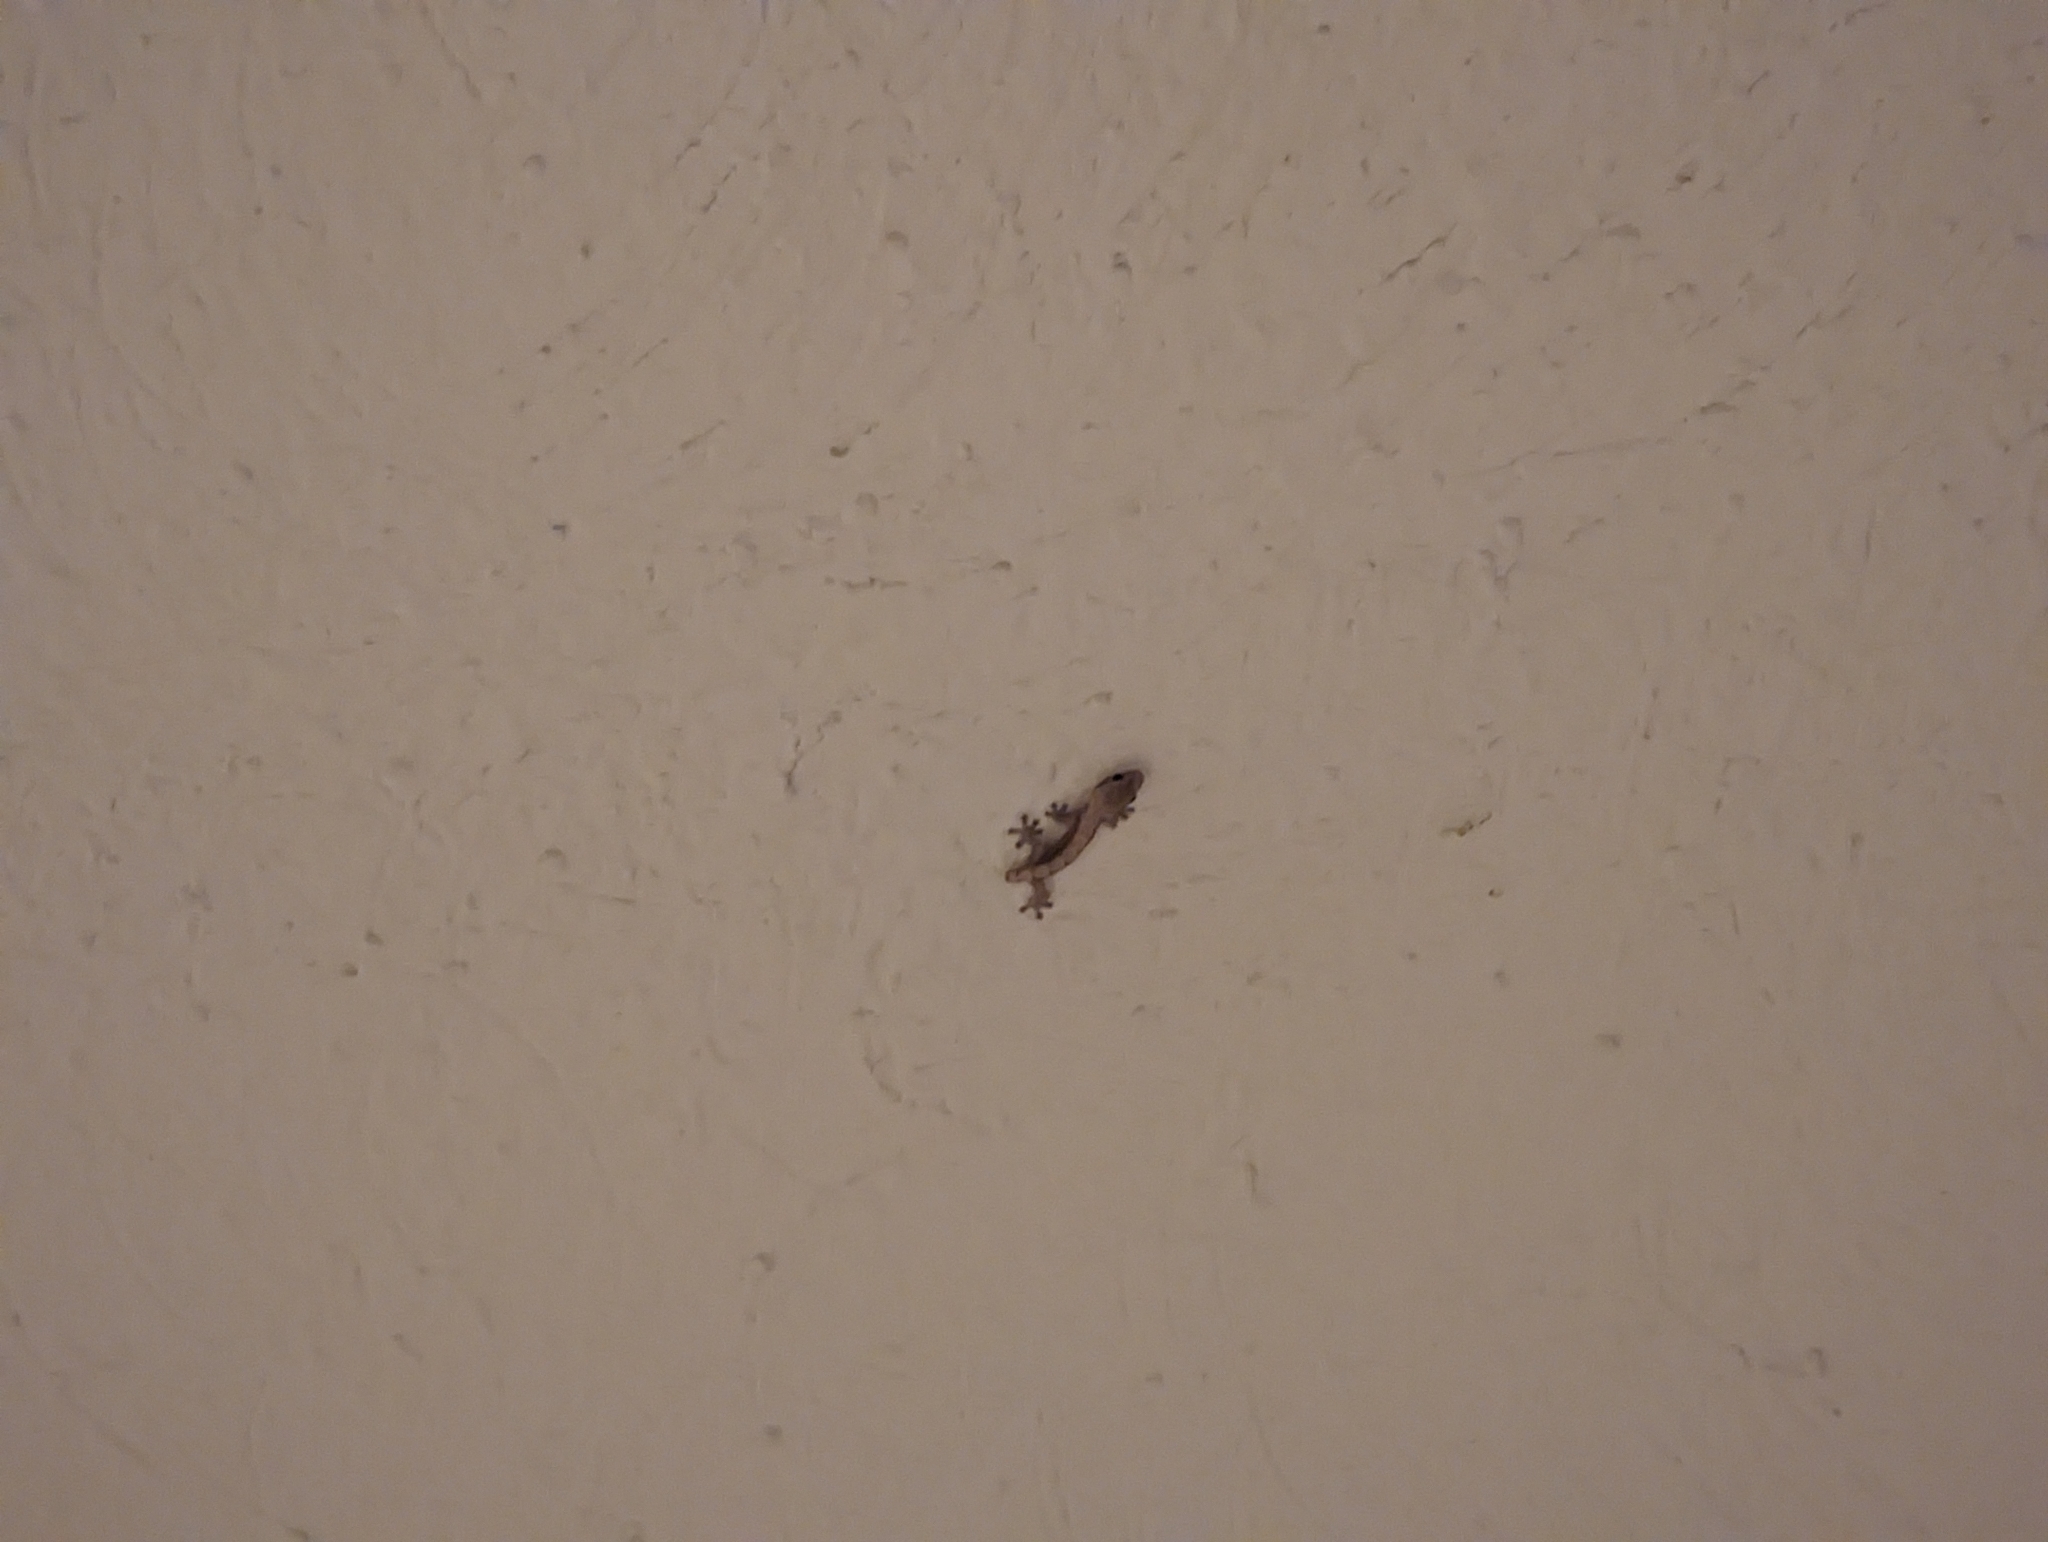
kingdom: Animalia
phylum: Chordata
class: Squamata
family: Gekkonidae
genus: Lepidodactylus
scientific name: Lepidodactylus lugubris
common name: Mourning gecko
